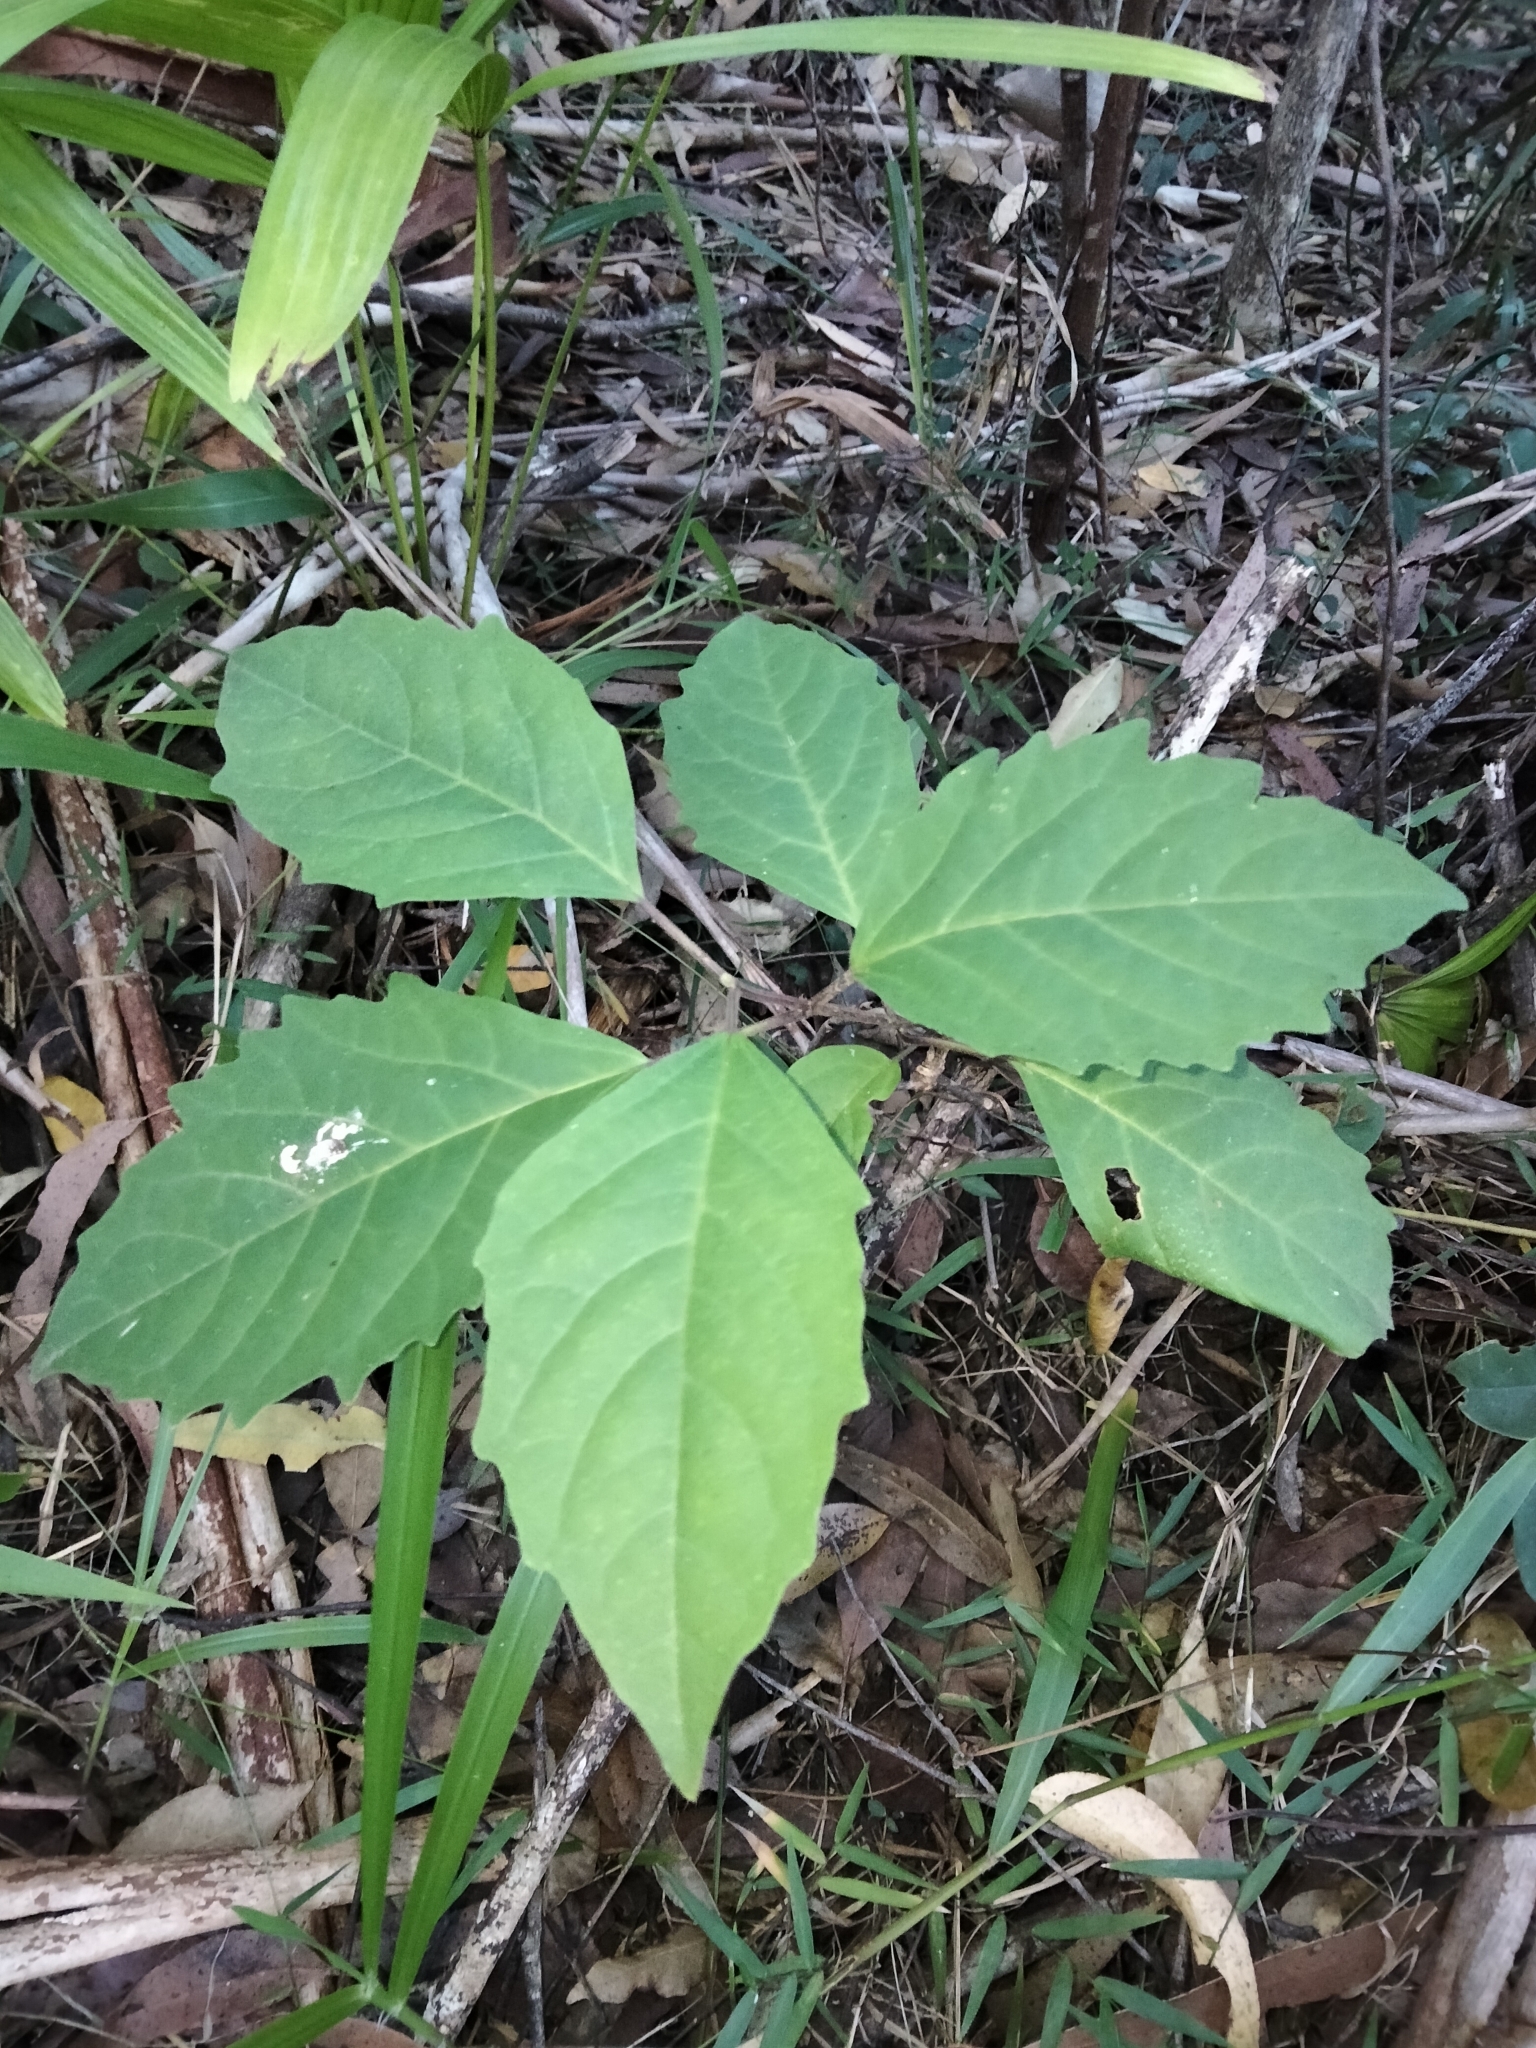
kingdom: Plantae
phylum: Tracheophyta
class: Magnoliopsida
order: Lamiales
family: Lamiaceae
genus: Clerodendrum
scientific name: Clerodendrum tomentosum
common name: Hairy clerodendrum
